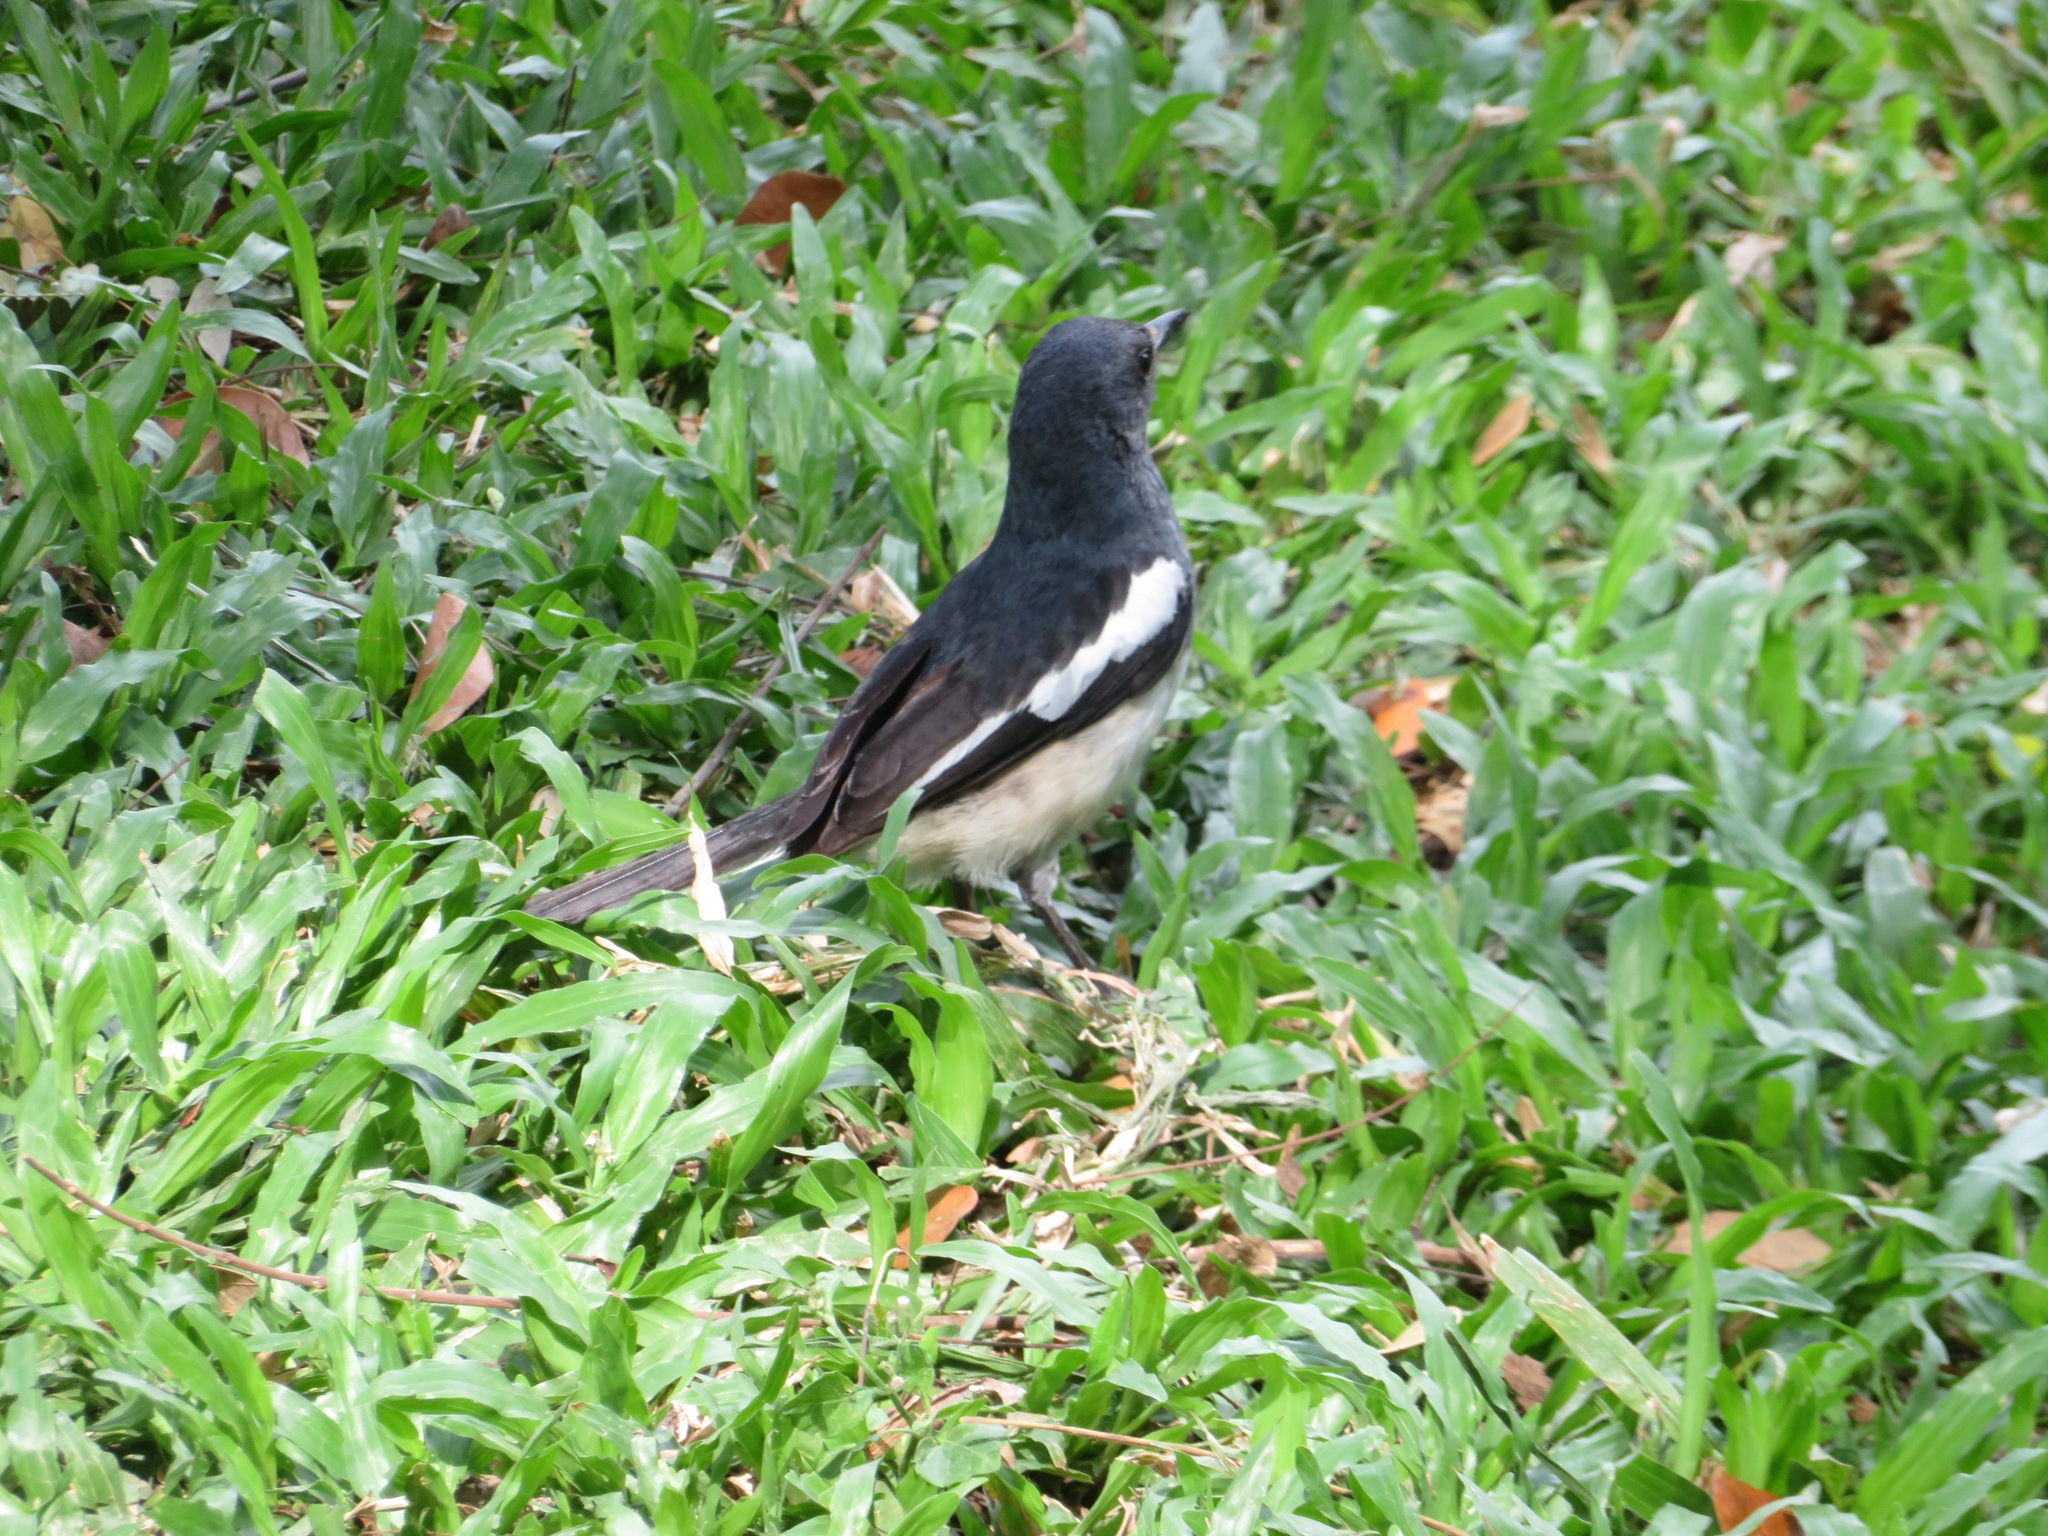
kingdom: Animalia
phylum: Chordata
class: Aves
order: Passeriformes
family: Muscicapidae
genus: Copsychus
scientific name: Copsychus saularis
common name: Oriental magpie-robin
